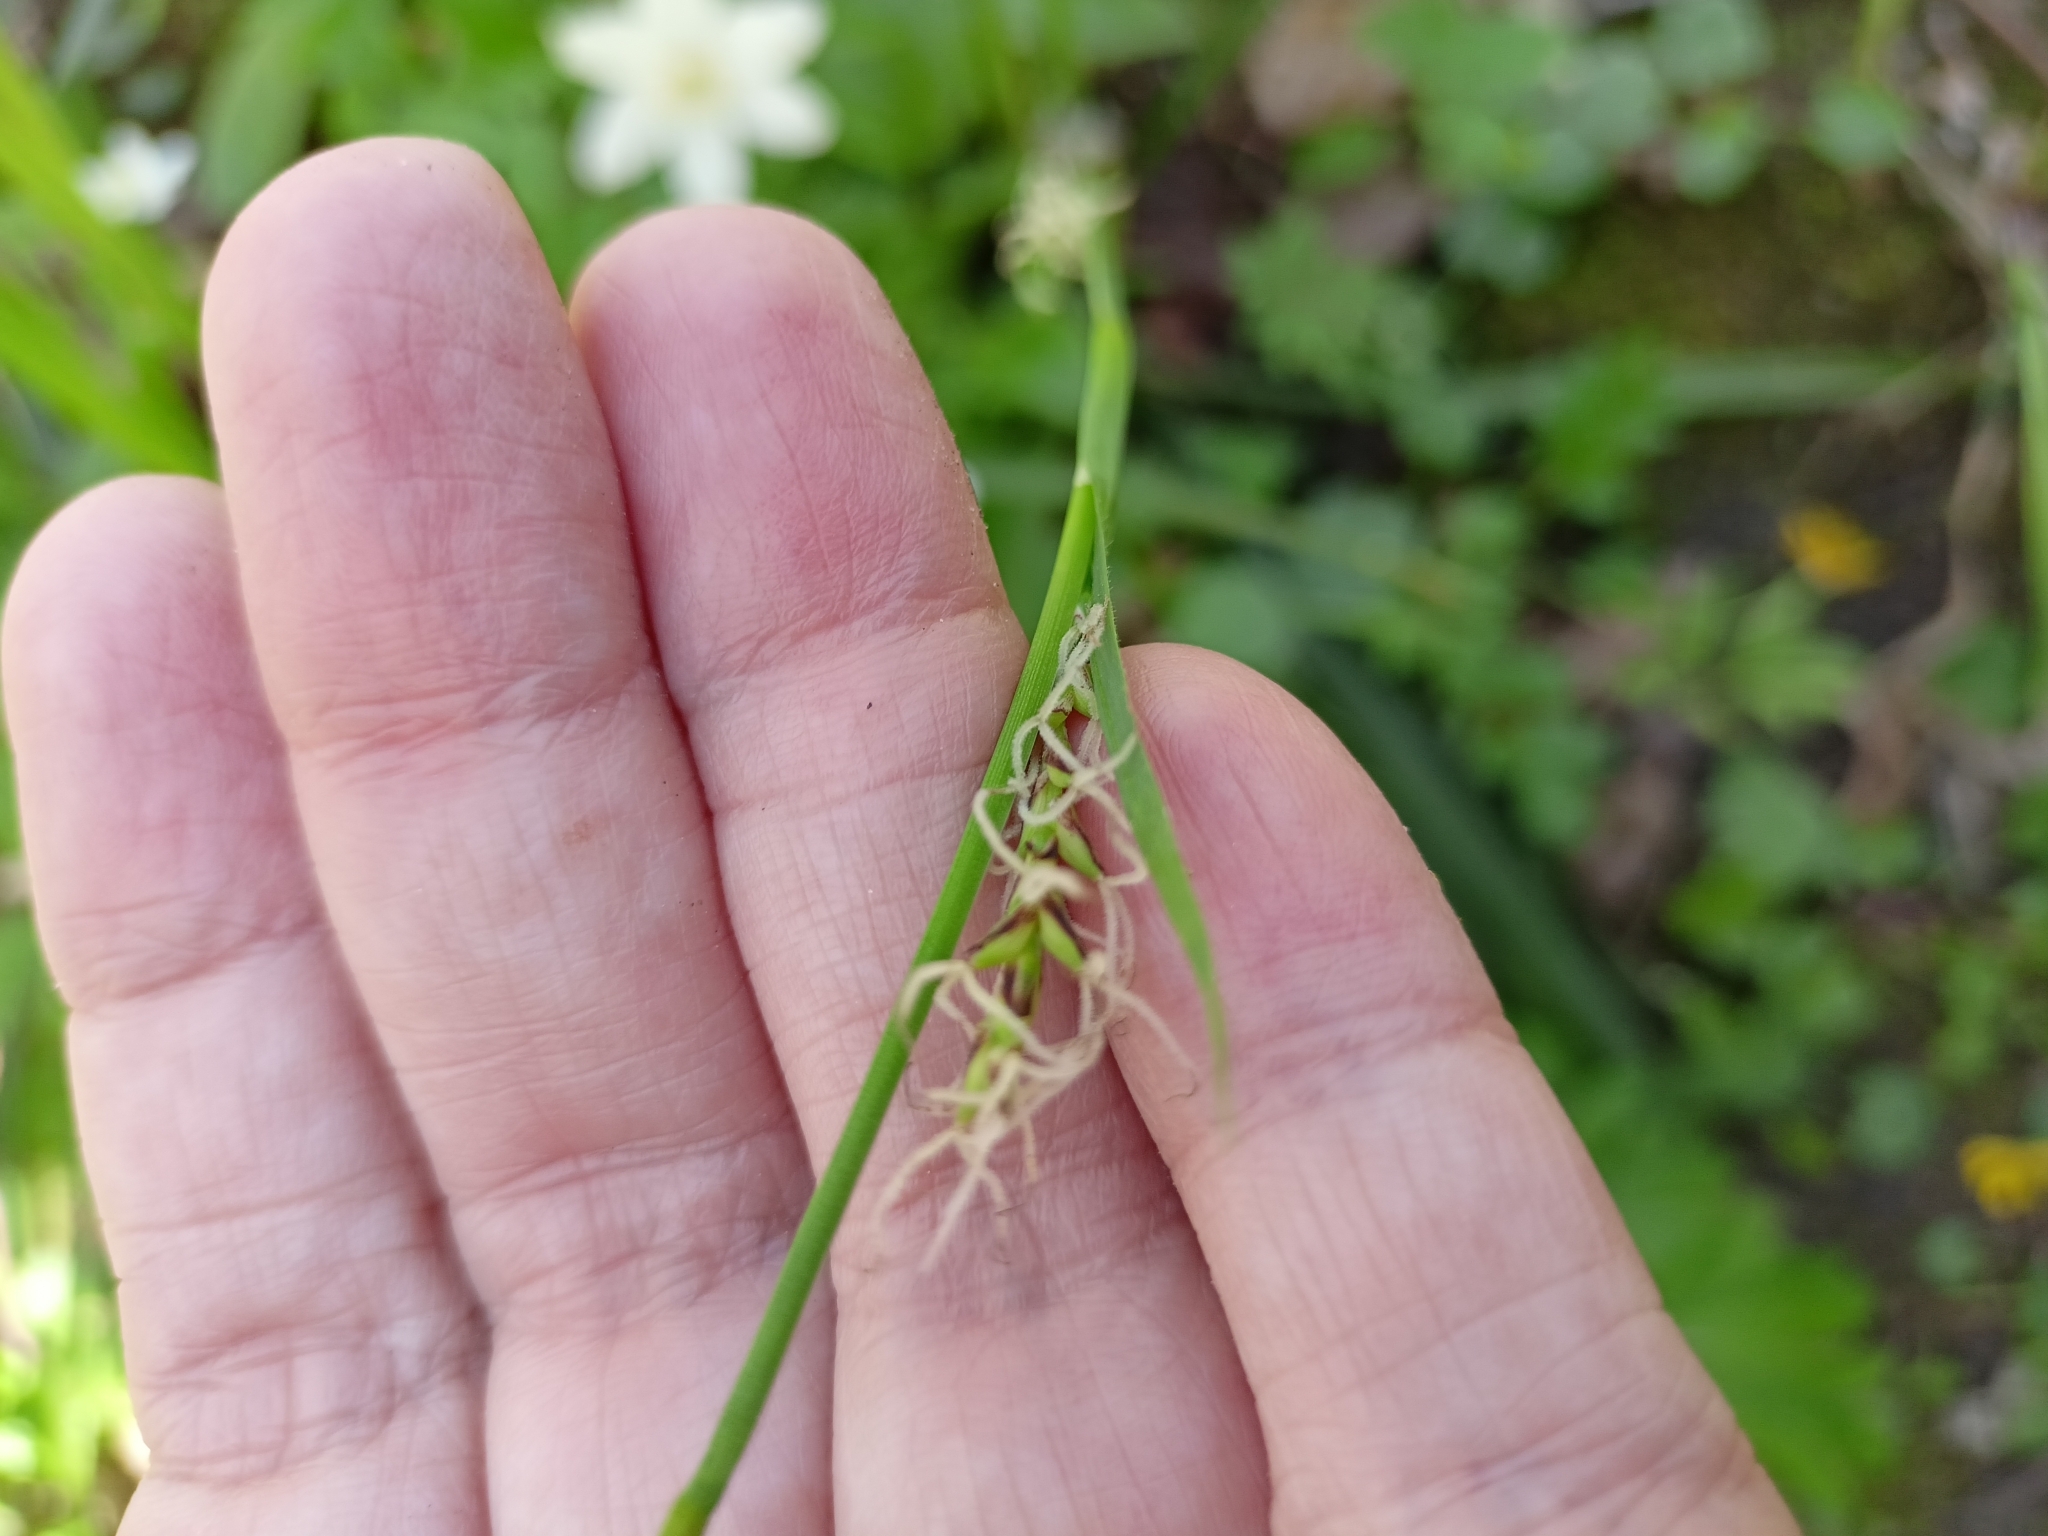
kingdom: Plantae
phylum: Tracheophyta
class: Liliopsida
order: Poales
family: Cyperaceae
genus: Carex
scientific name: Carex pilosa
